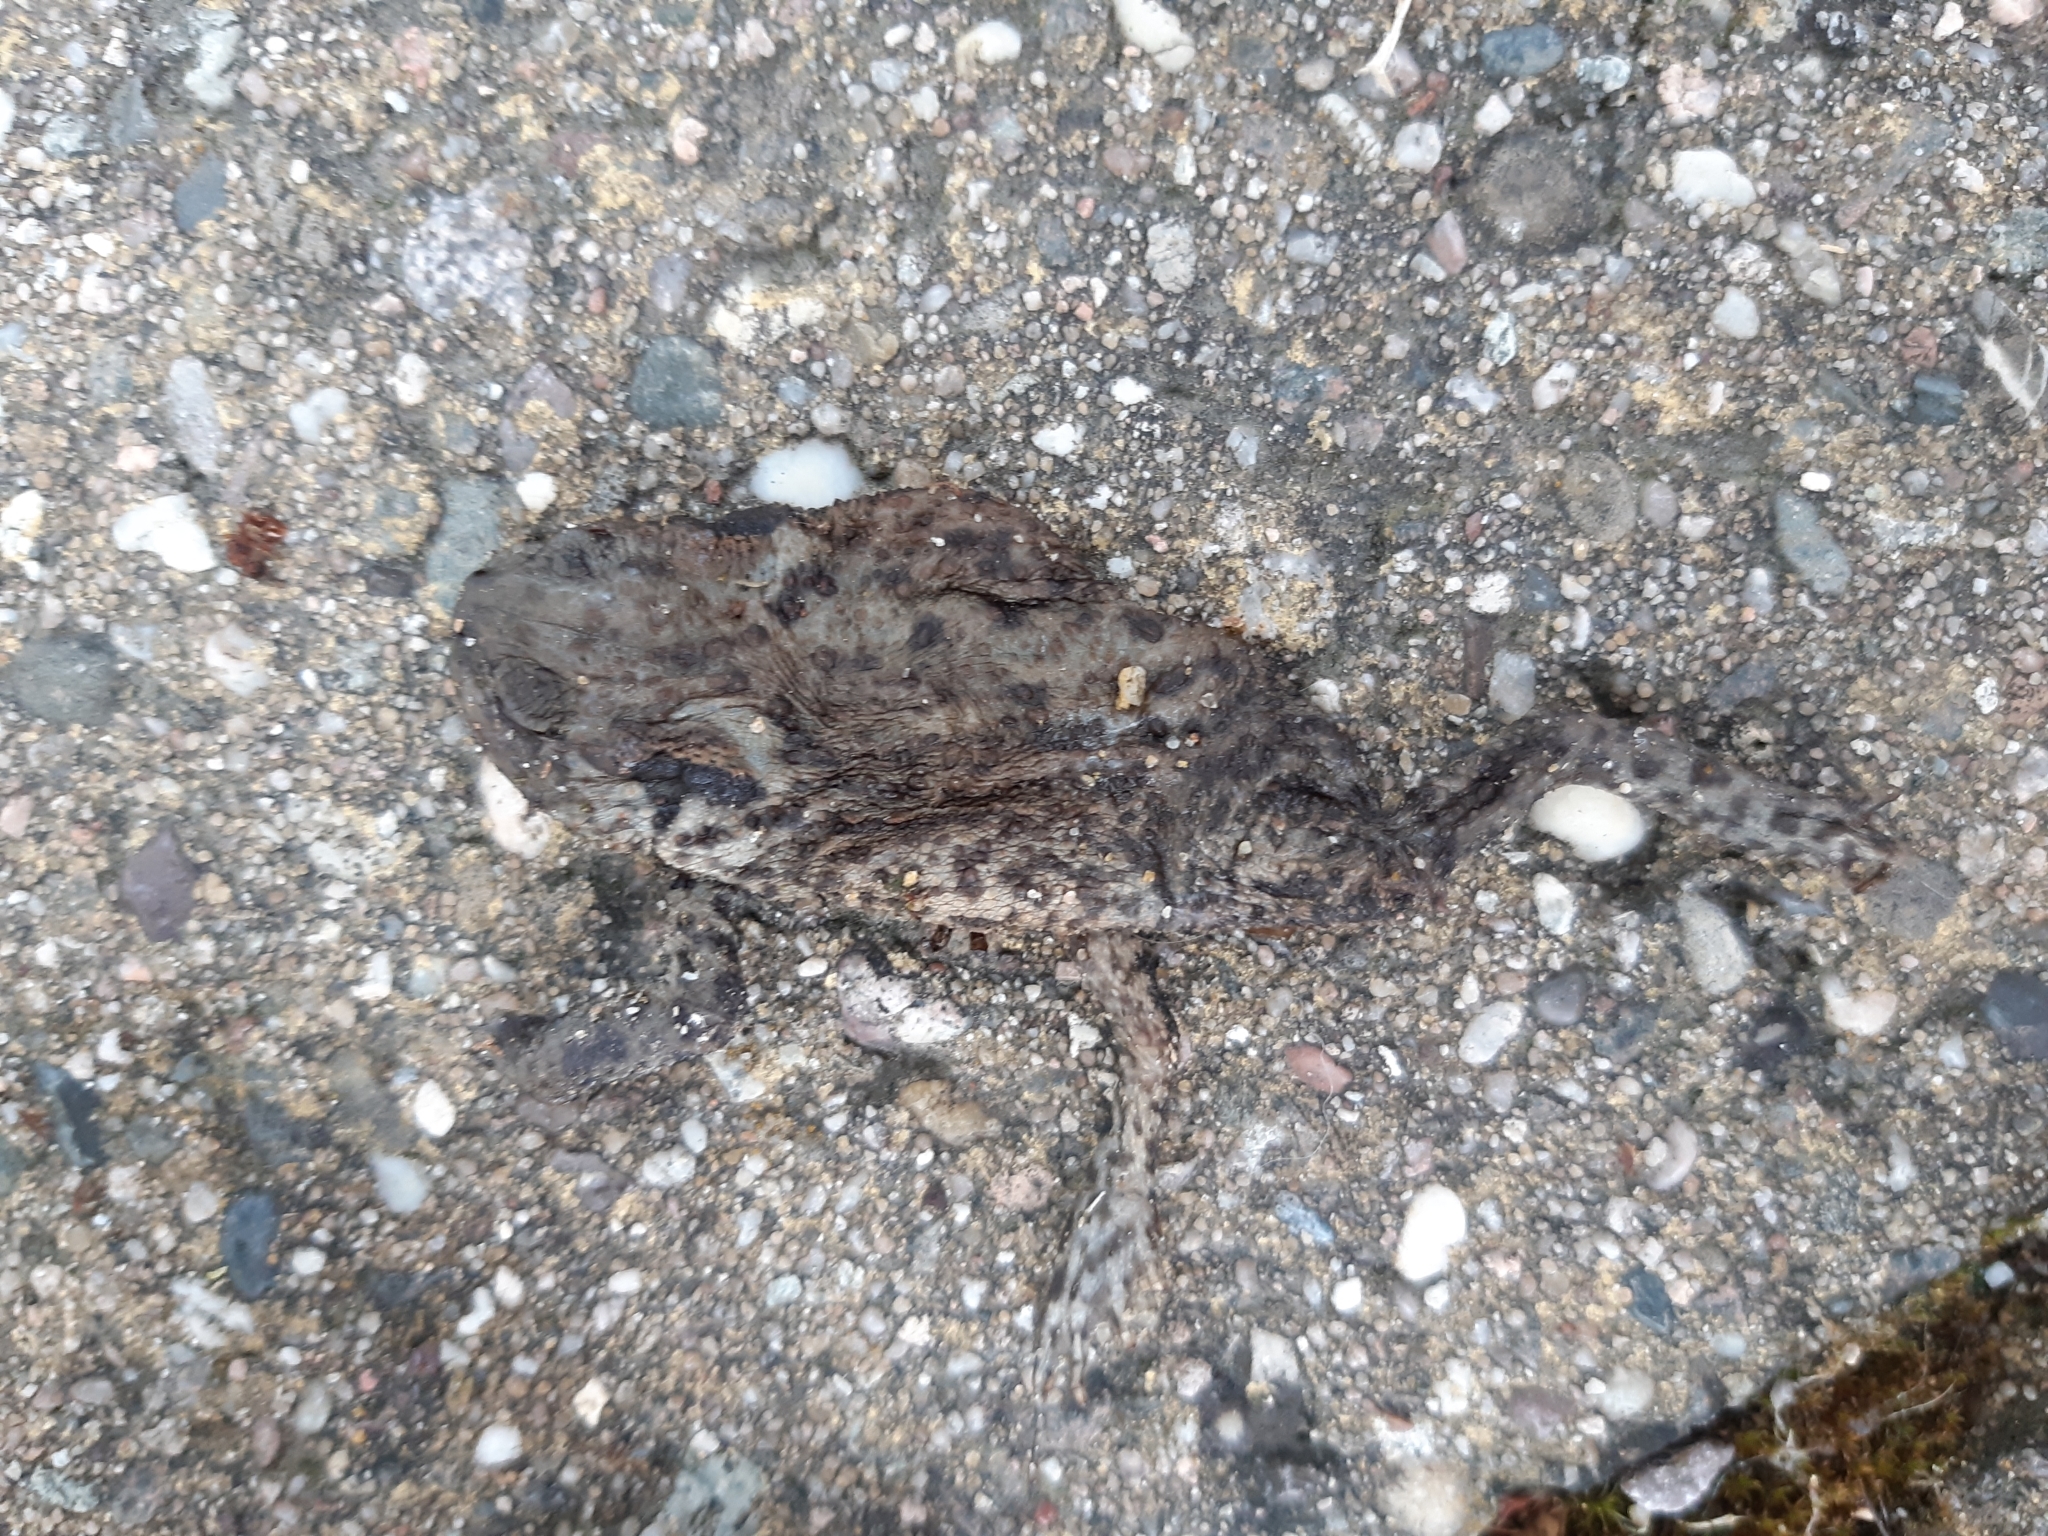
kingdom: Animalia
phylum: Chordata
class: Amphibia
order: Anura
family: Bufonidae
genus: Bufo
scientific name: Bufo bufo
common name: Common toad
